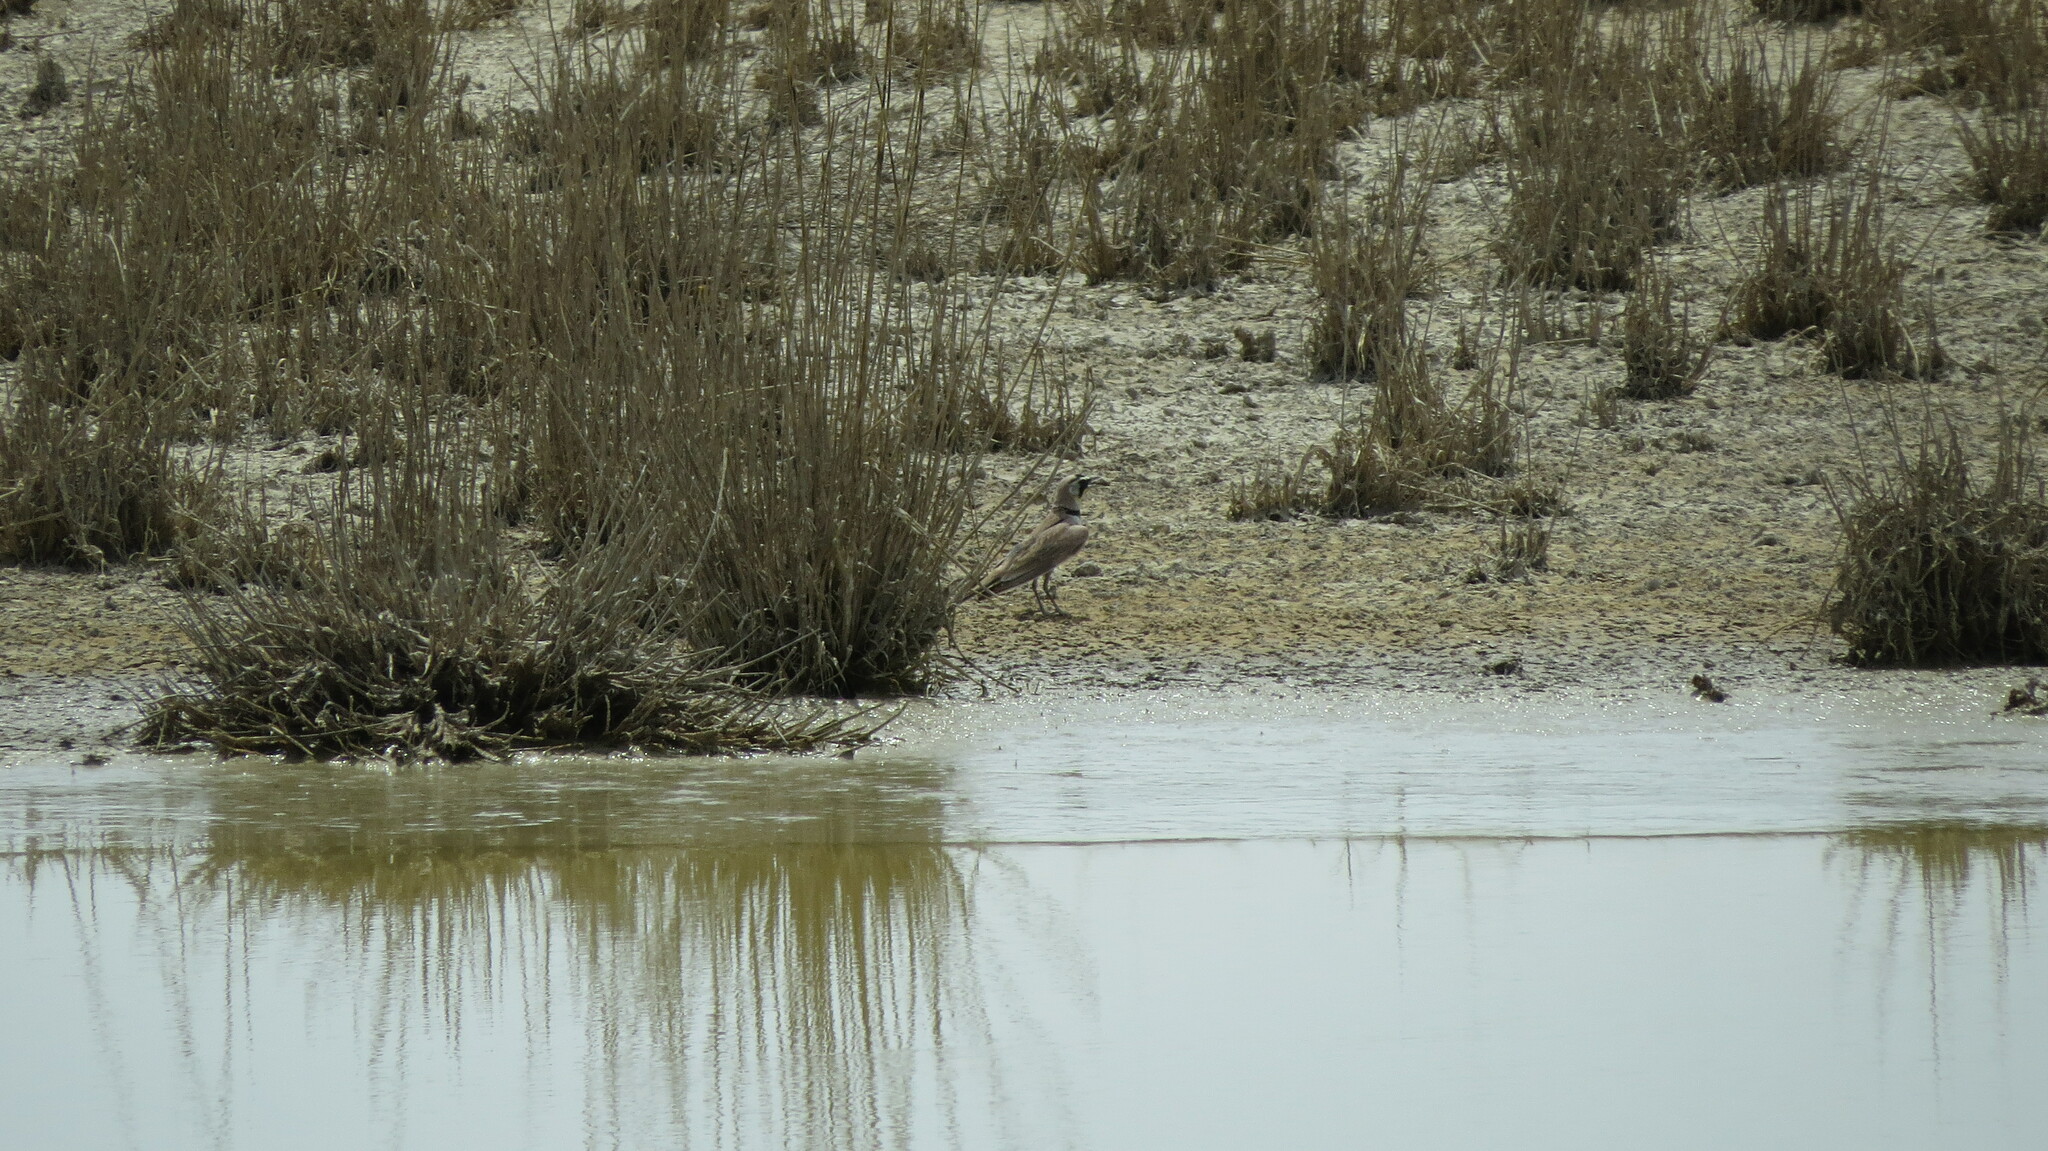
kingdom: Animalia
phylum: Chordata
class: Aves
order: Passeriformes
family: Alaudidae
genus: Eremophila
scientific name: Eremophila alpestris
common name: Horned lark
